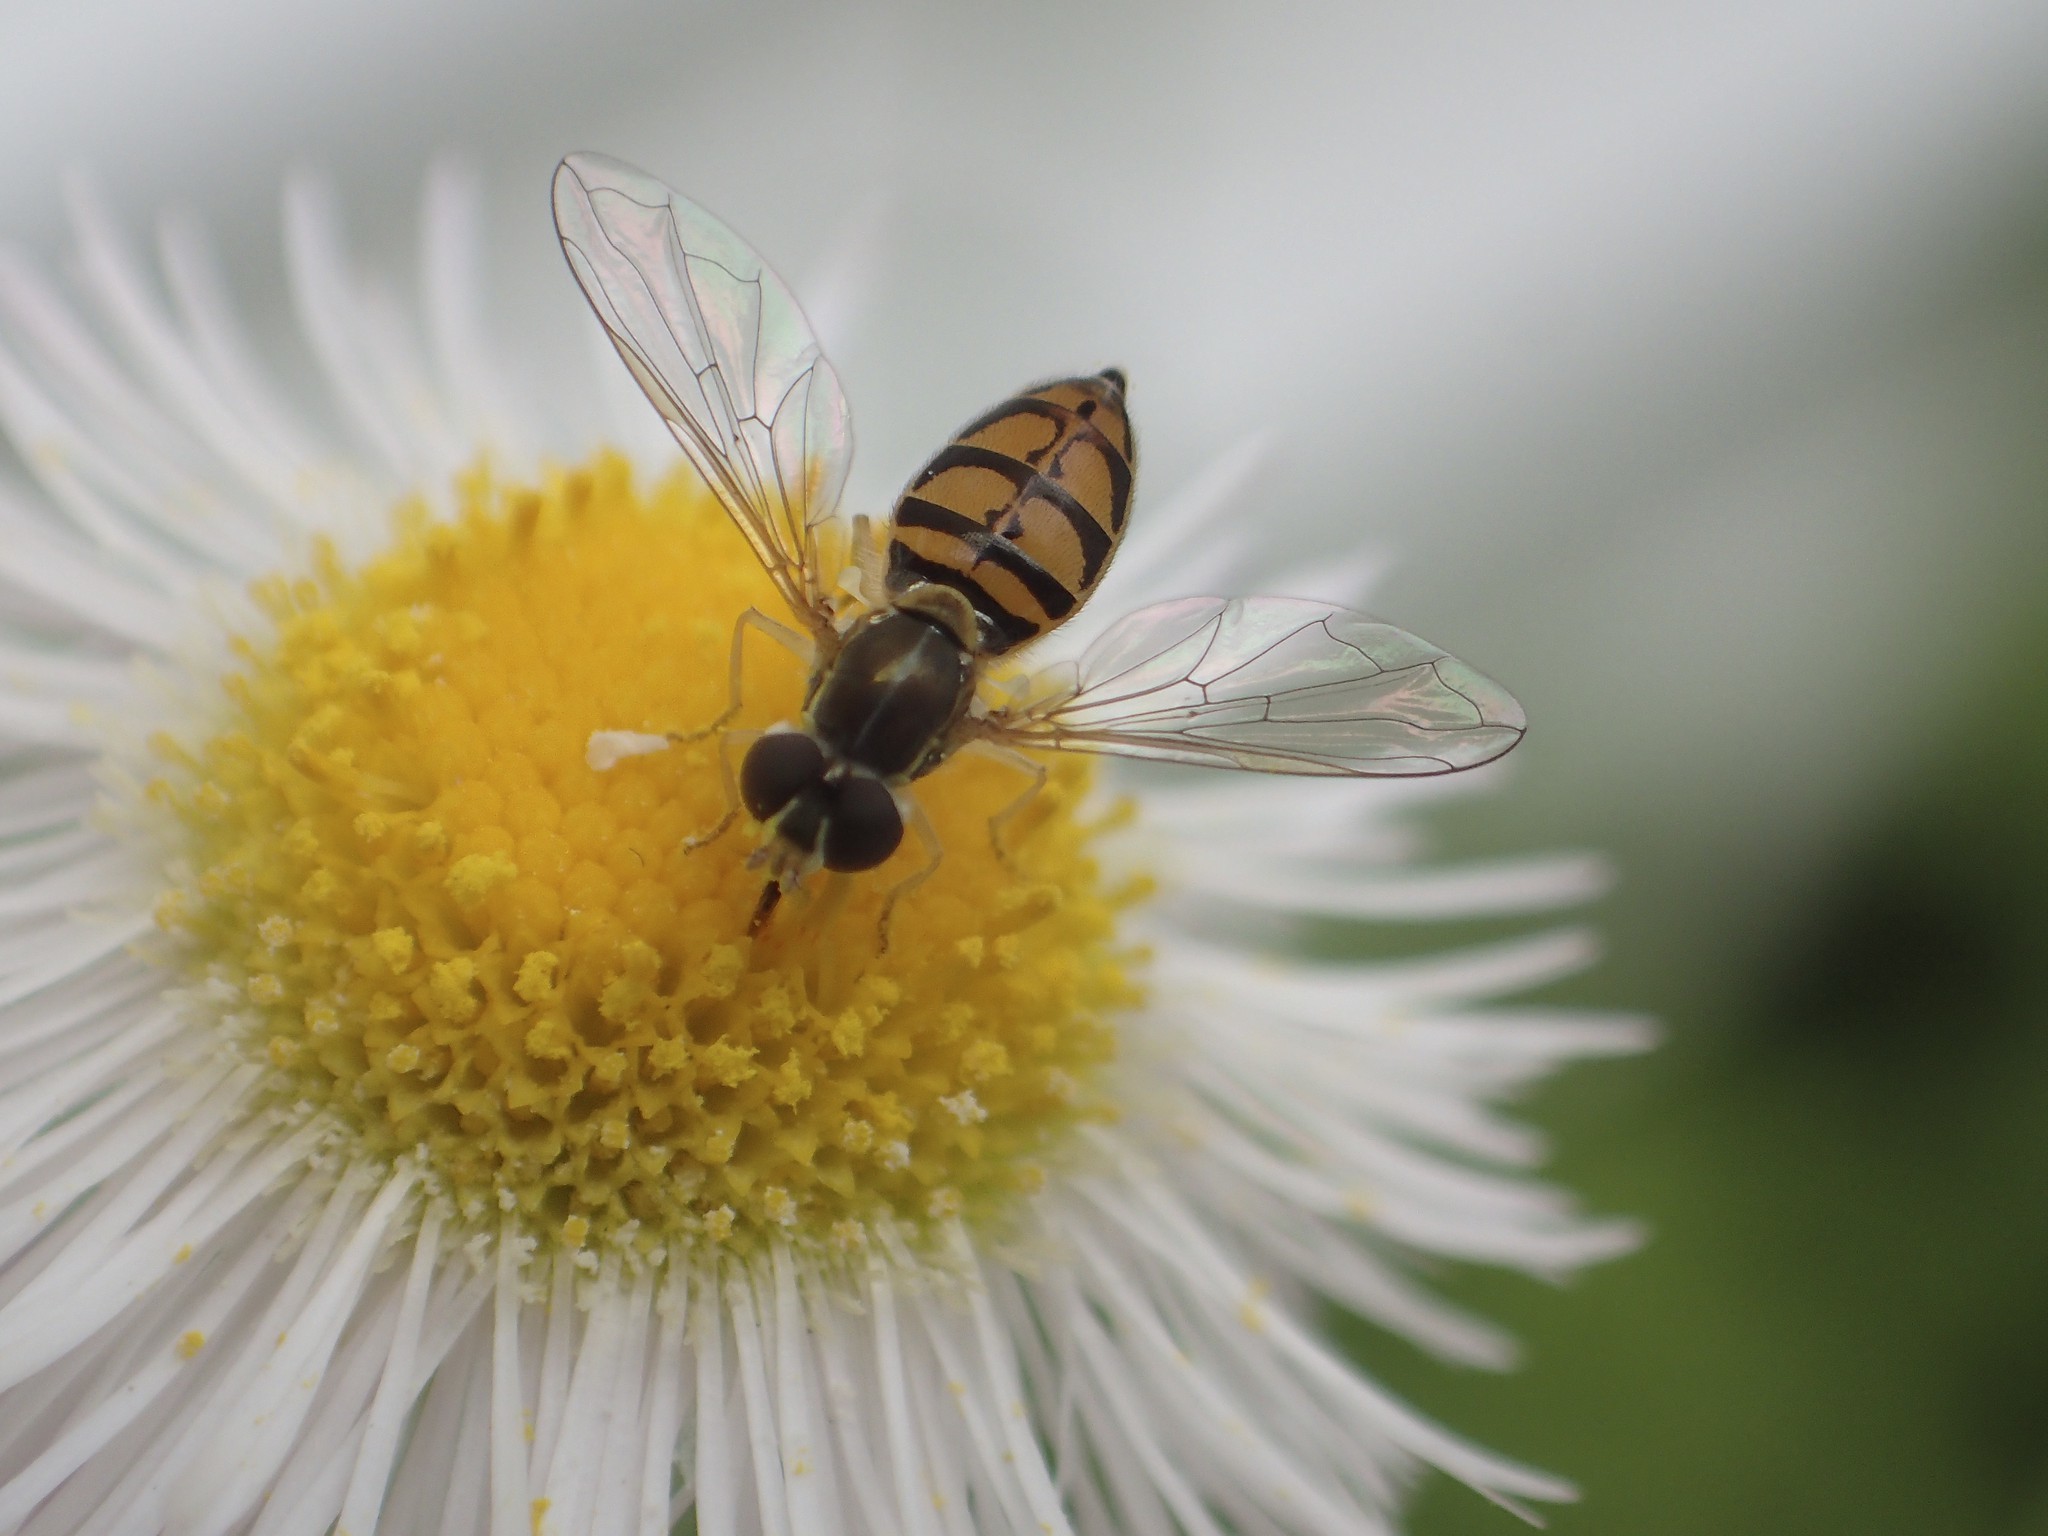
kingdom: Animalia
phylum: Arthropoda
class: Insecta
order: Diptera
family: Syrphidae
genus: Toxomerus
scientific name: Toxomerus marginatus
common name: Syrphid fly
